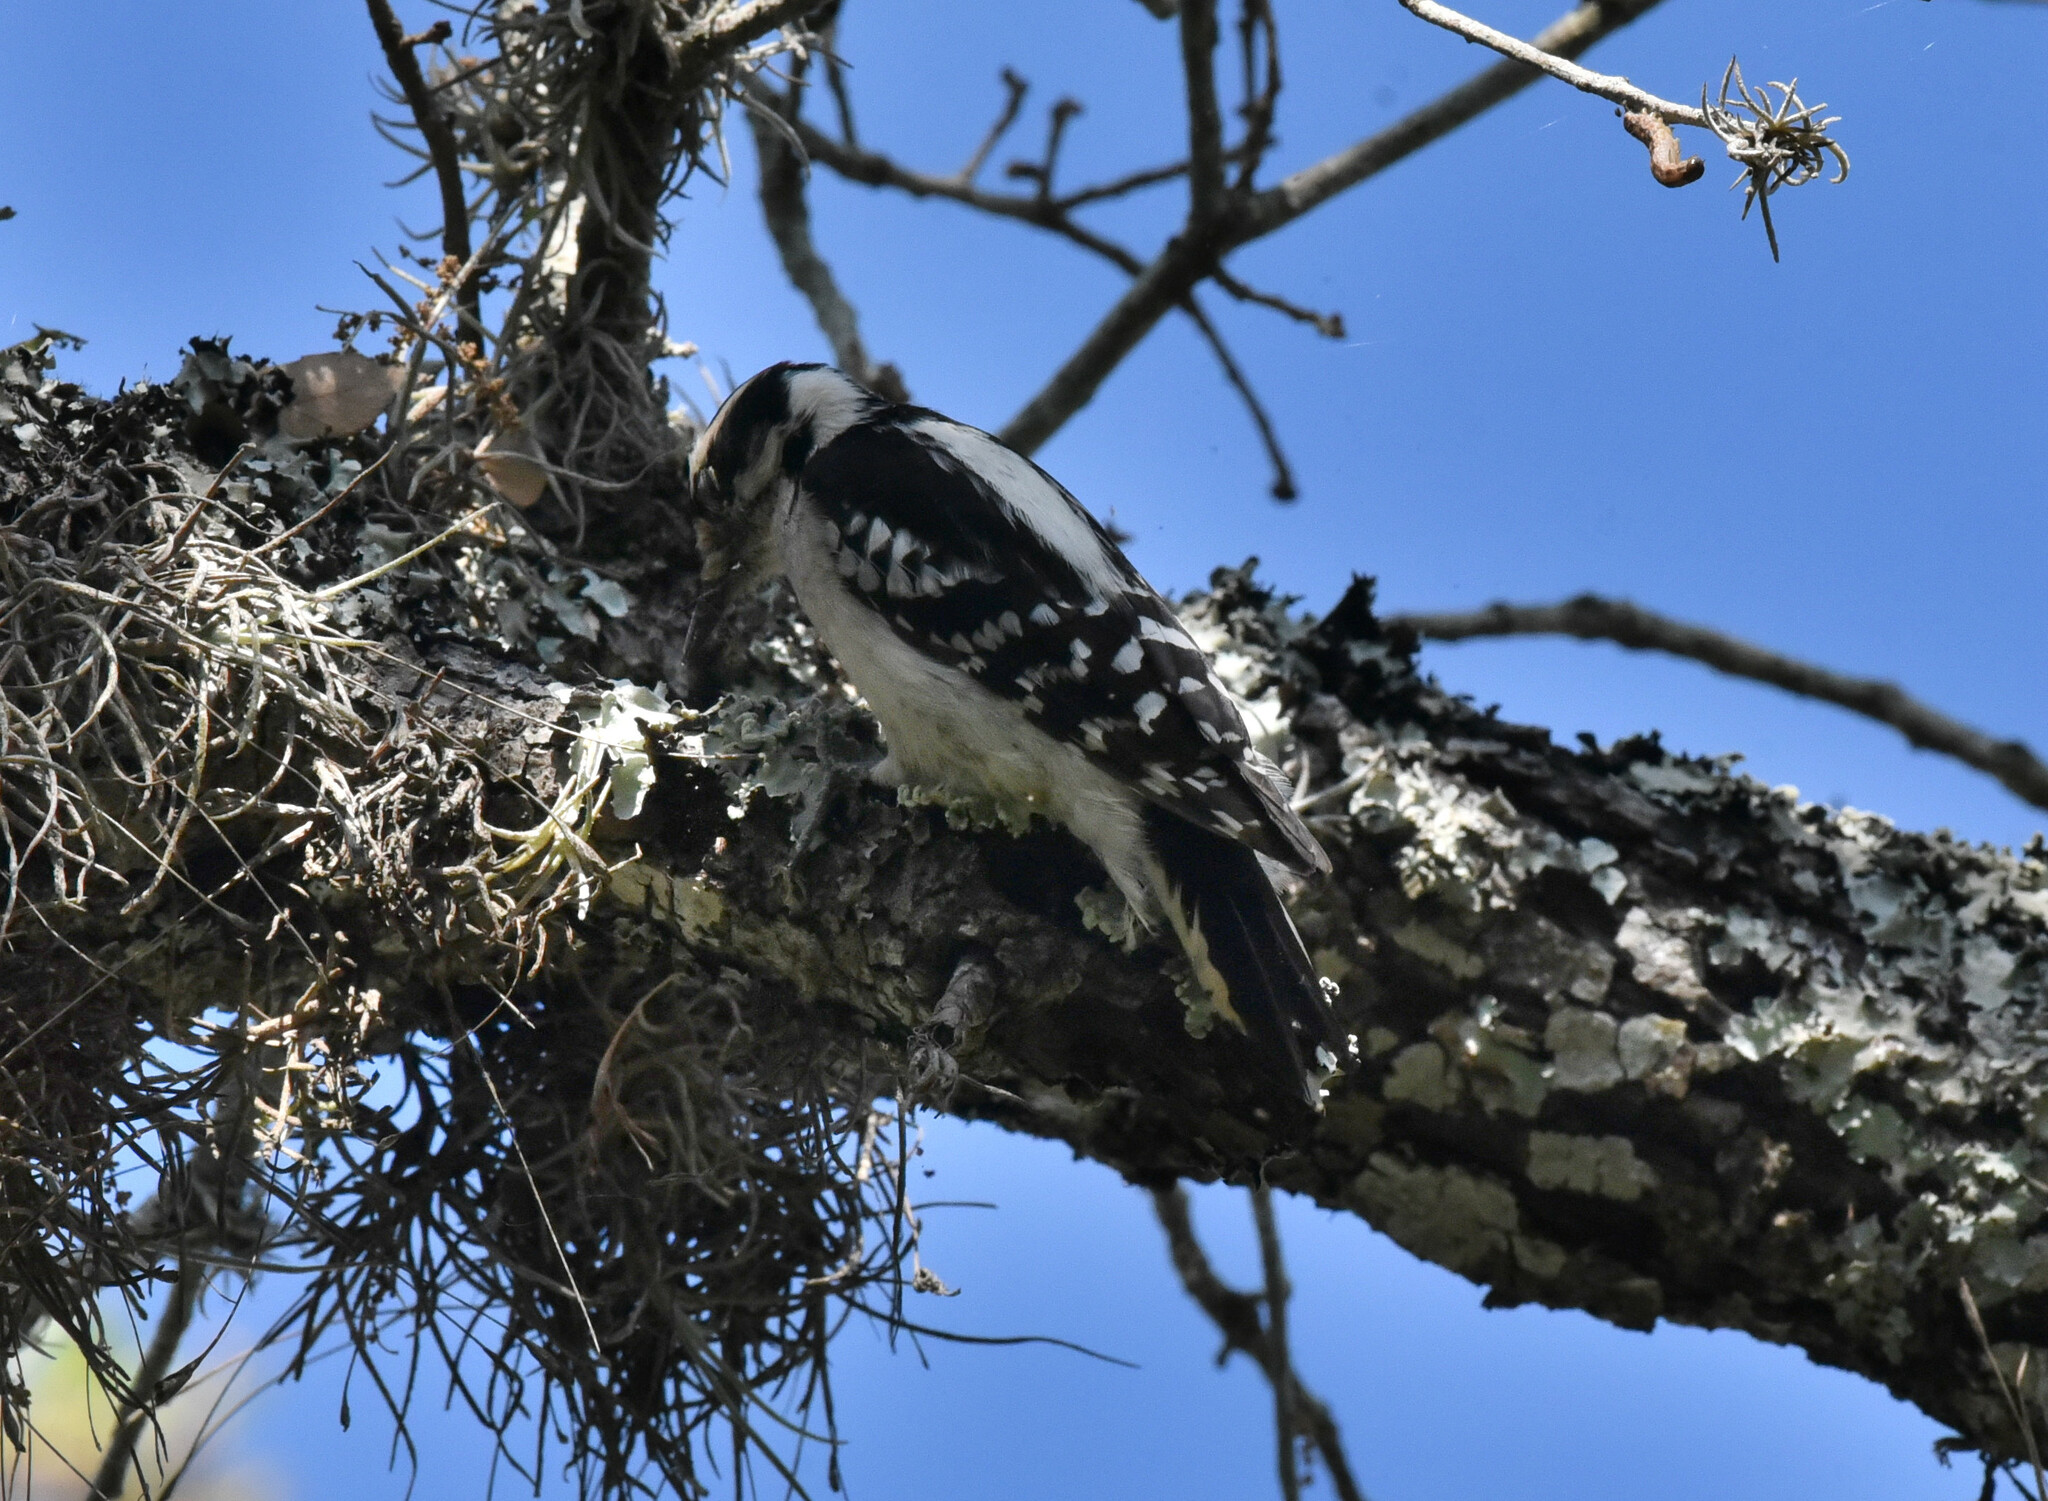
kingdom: Animalia
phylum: Chordata
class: Aves
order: Piciformes
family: Picidae
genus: Dryobates
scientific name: Dryobates pubescens
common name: Downy woodpecker
